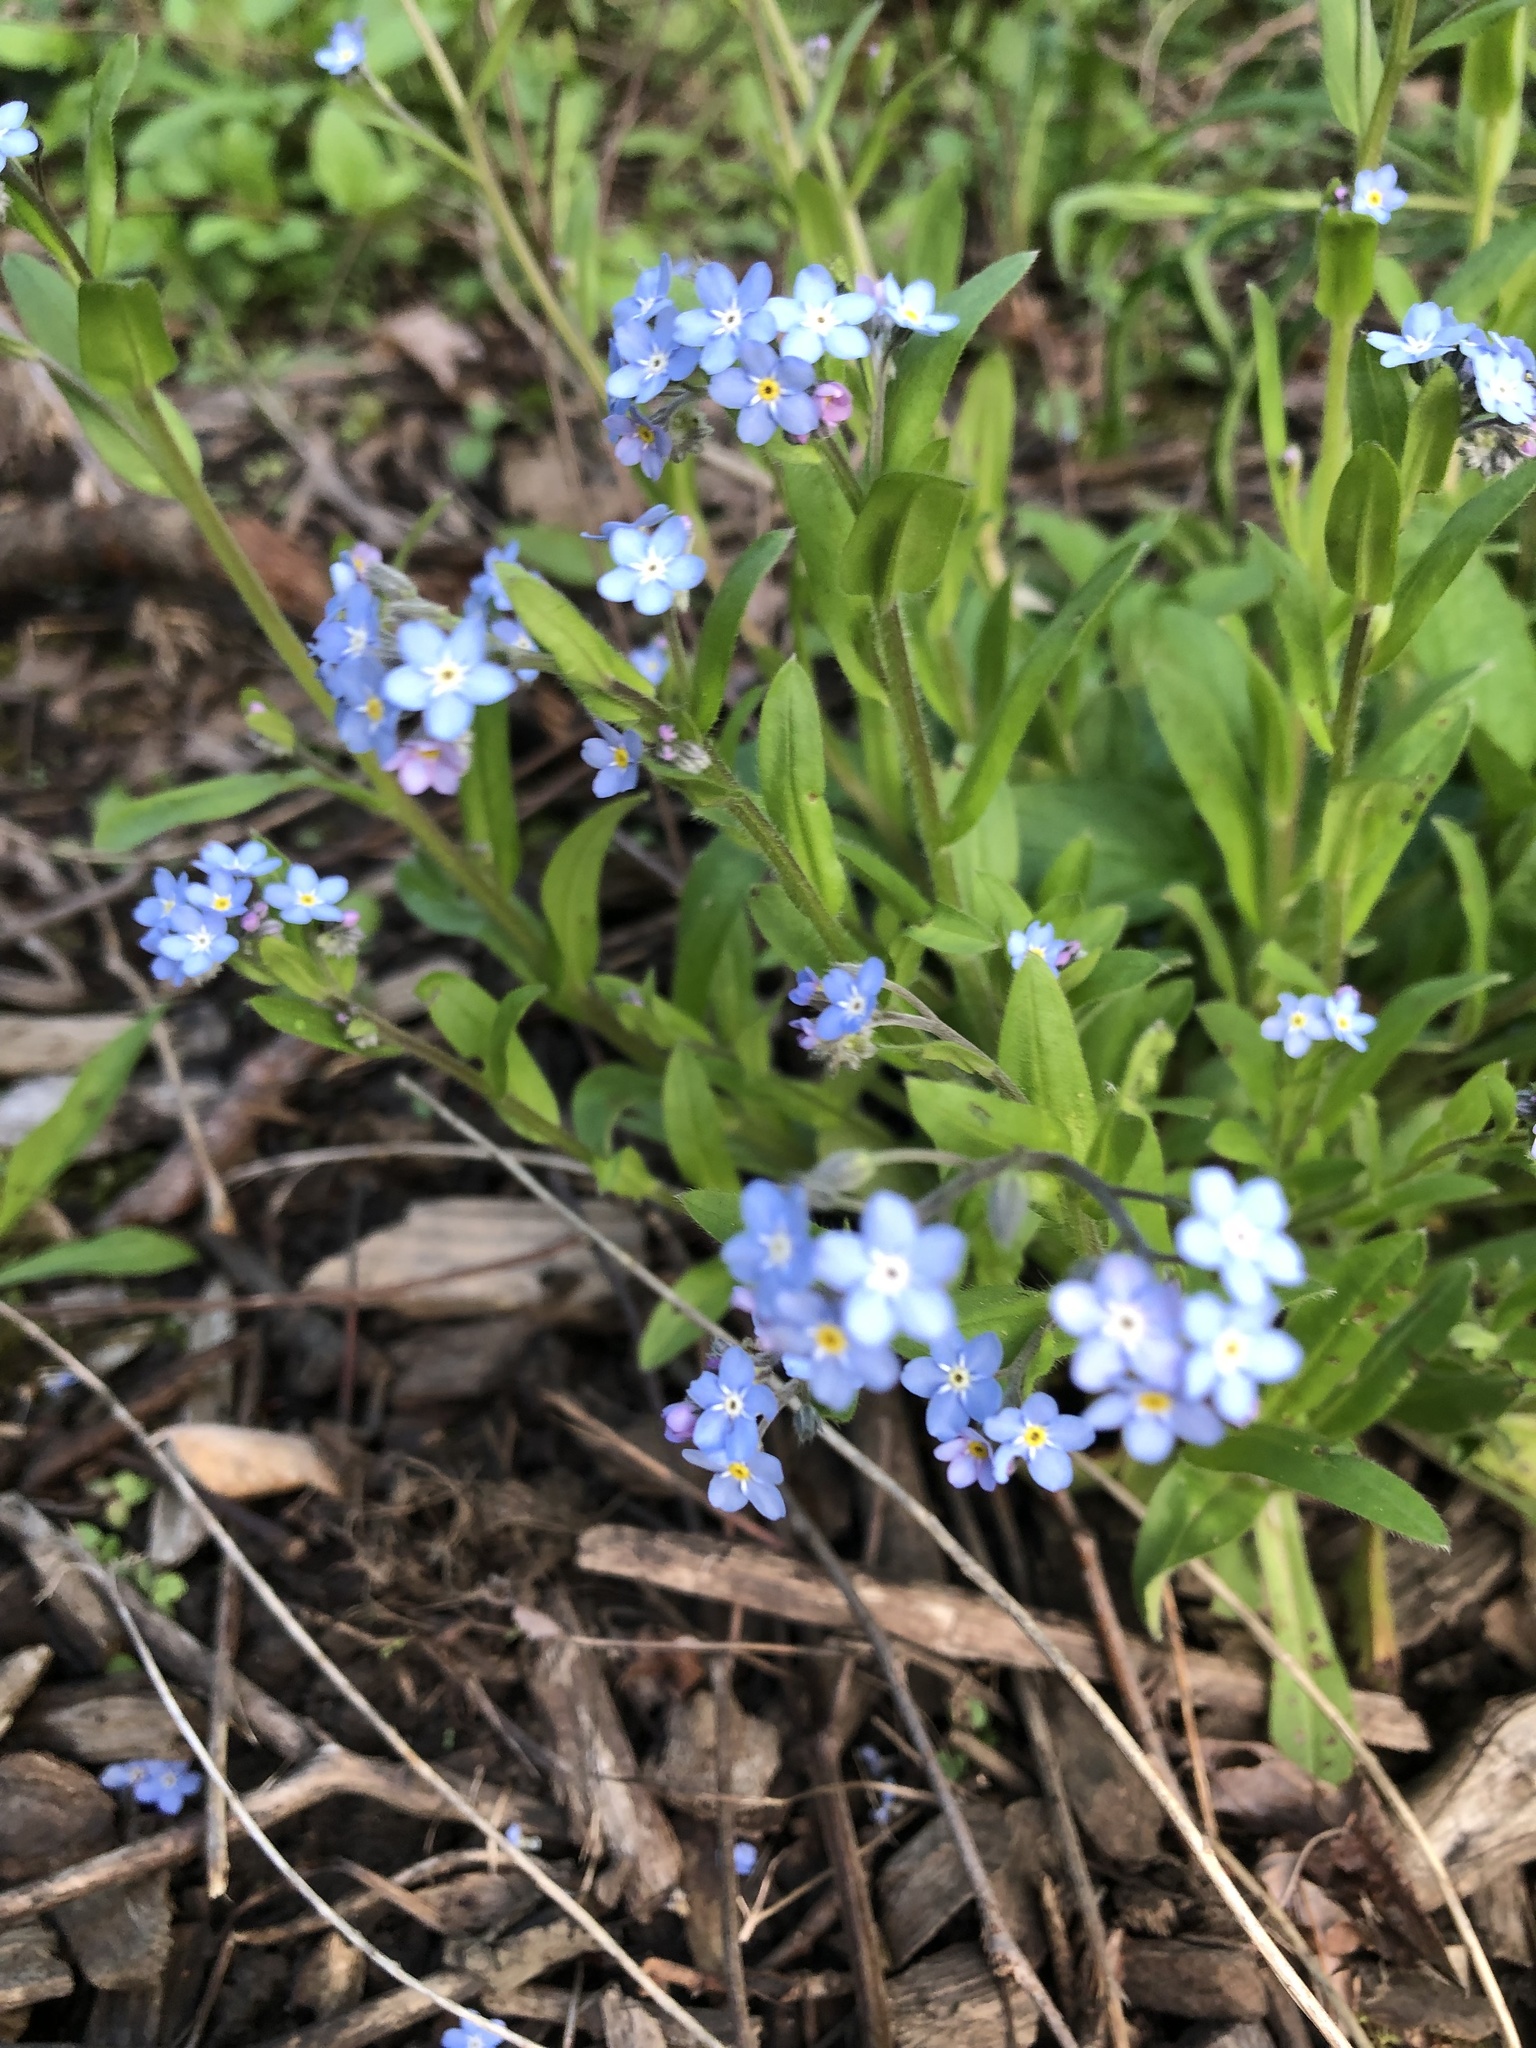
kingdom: Plantae
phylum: Tracheophyta
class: Magnoliopsida
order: Boraginales
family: Boraginaceae
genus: Myosotis
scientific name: Myosotis sylvatica
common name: Wood forget-me-not
